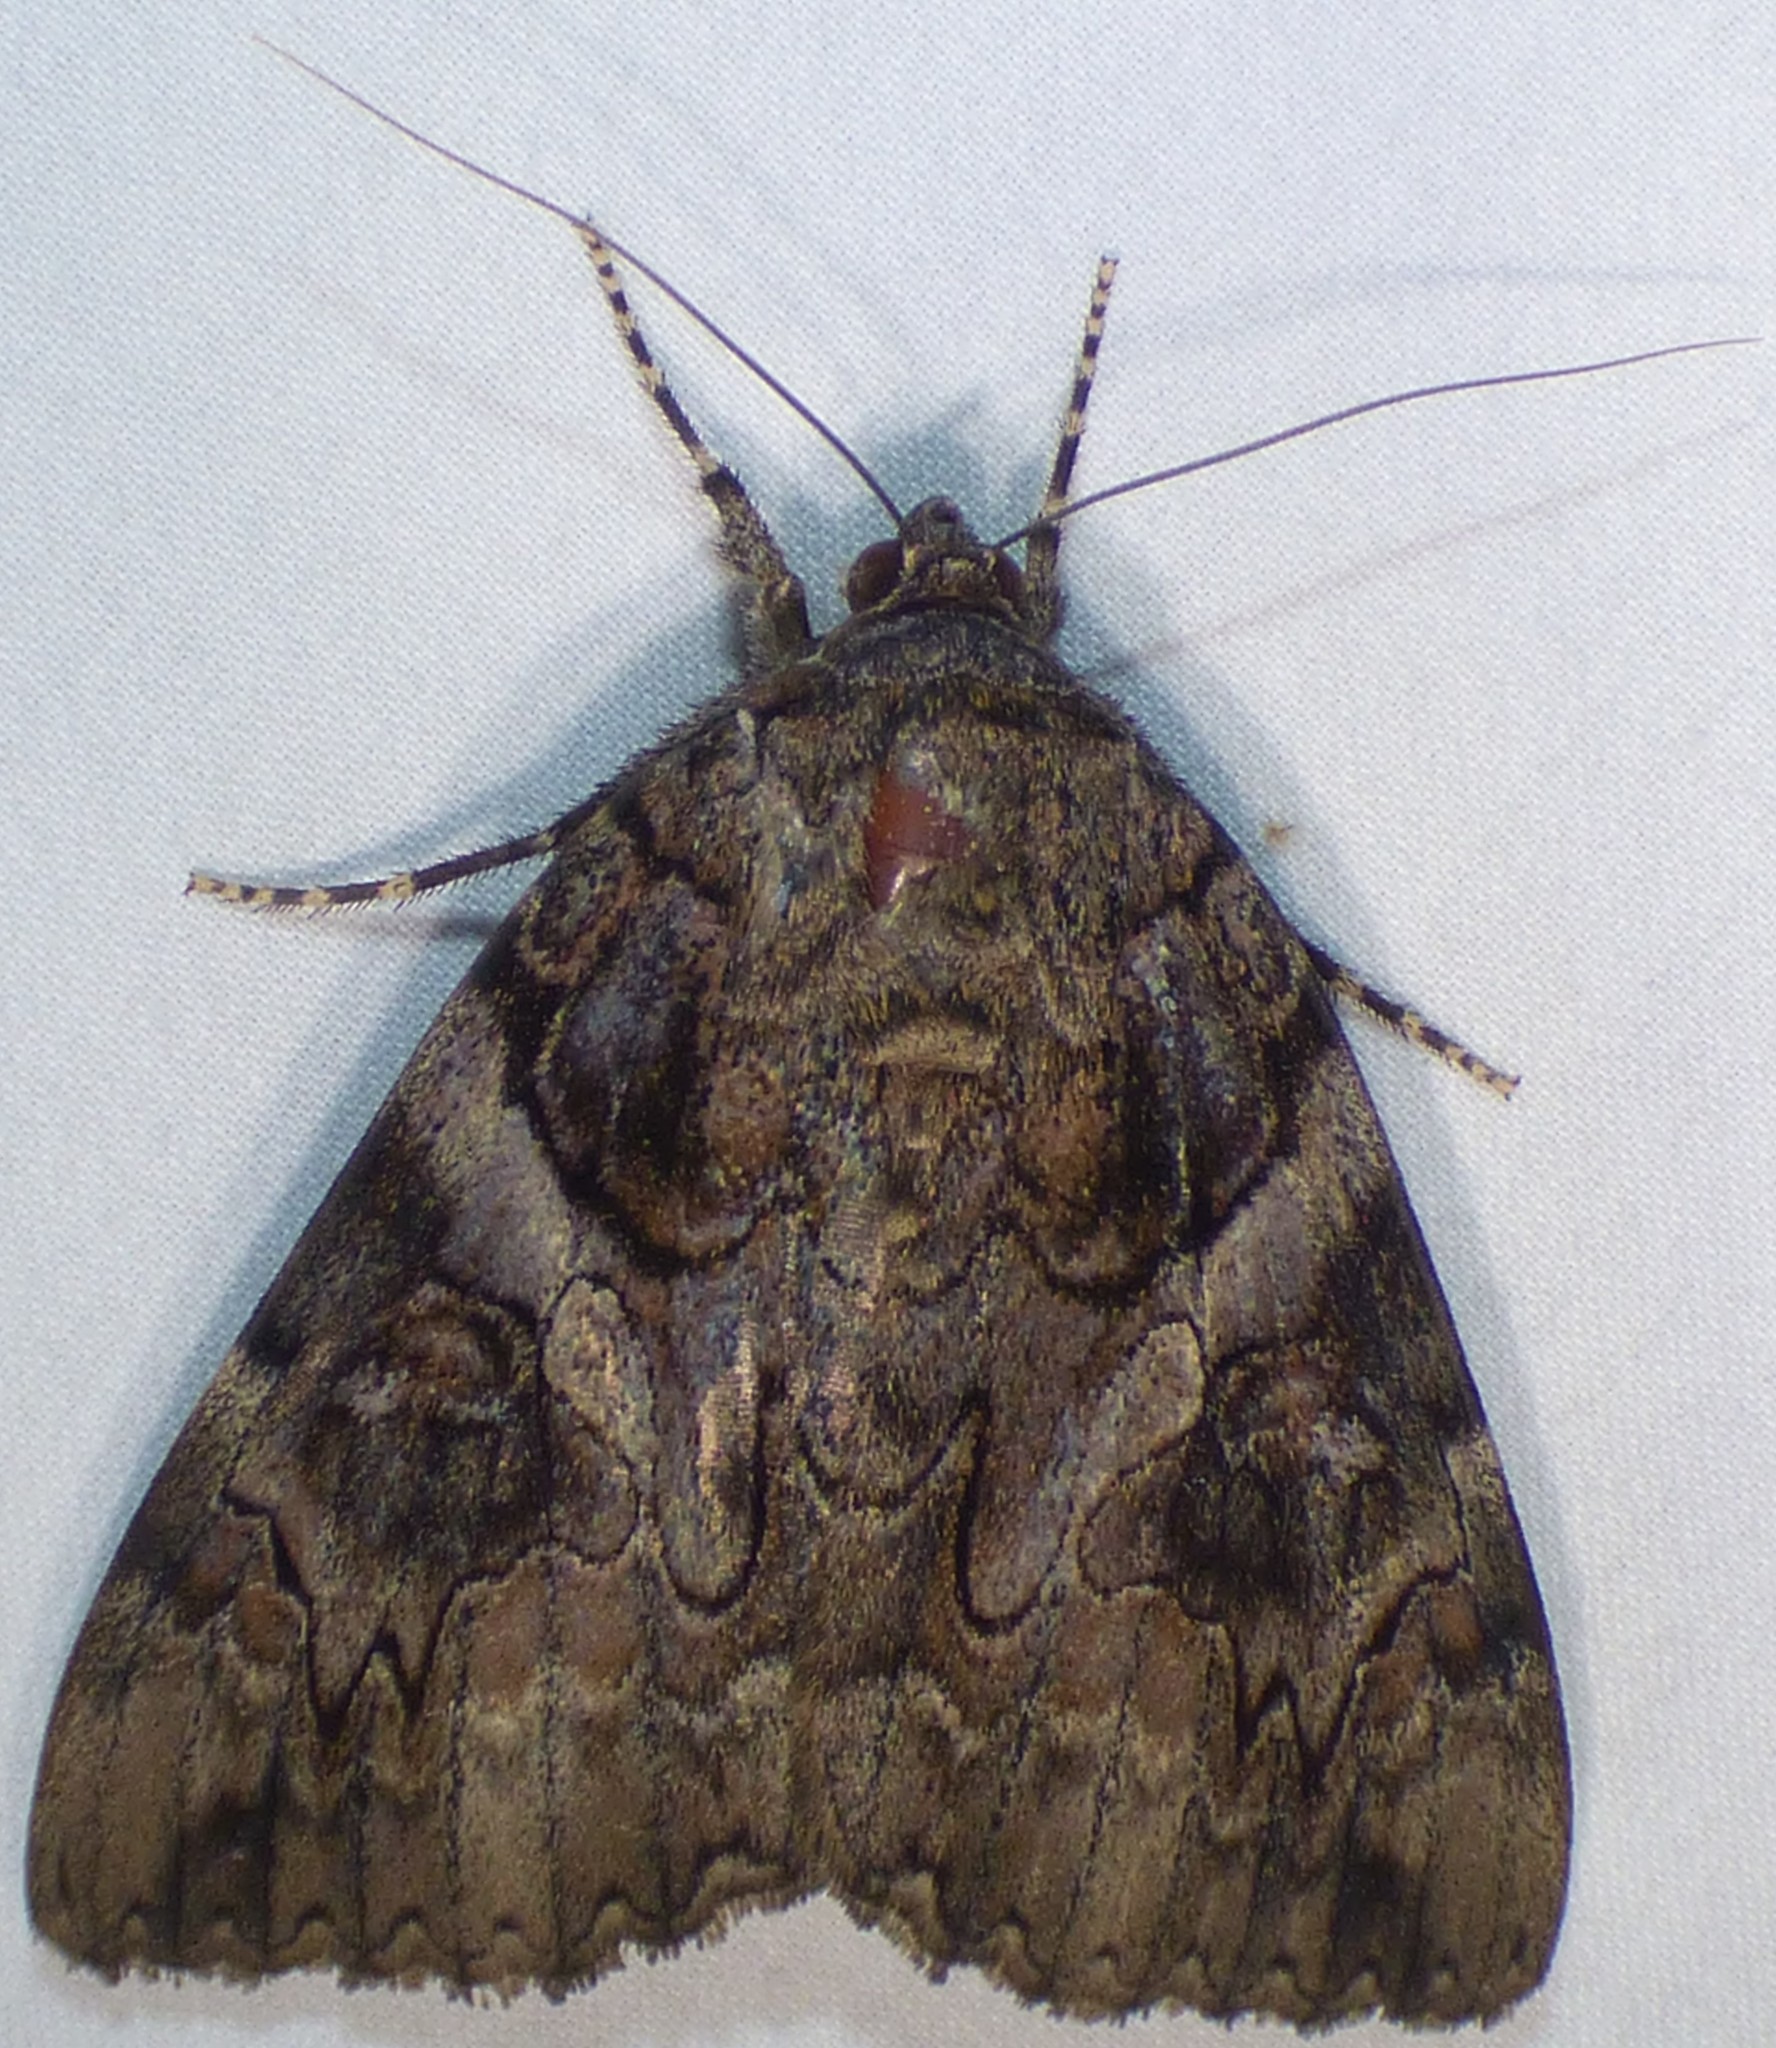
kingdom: Animalia
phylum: Arthropoda
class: Insecta
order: Lepidoptera
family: Erebidae
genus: Catocala
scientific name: Catocala piatrix
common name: The penitent underwing
